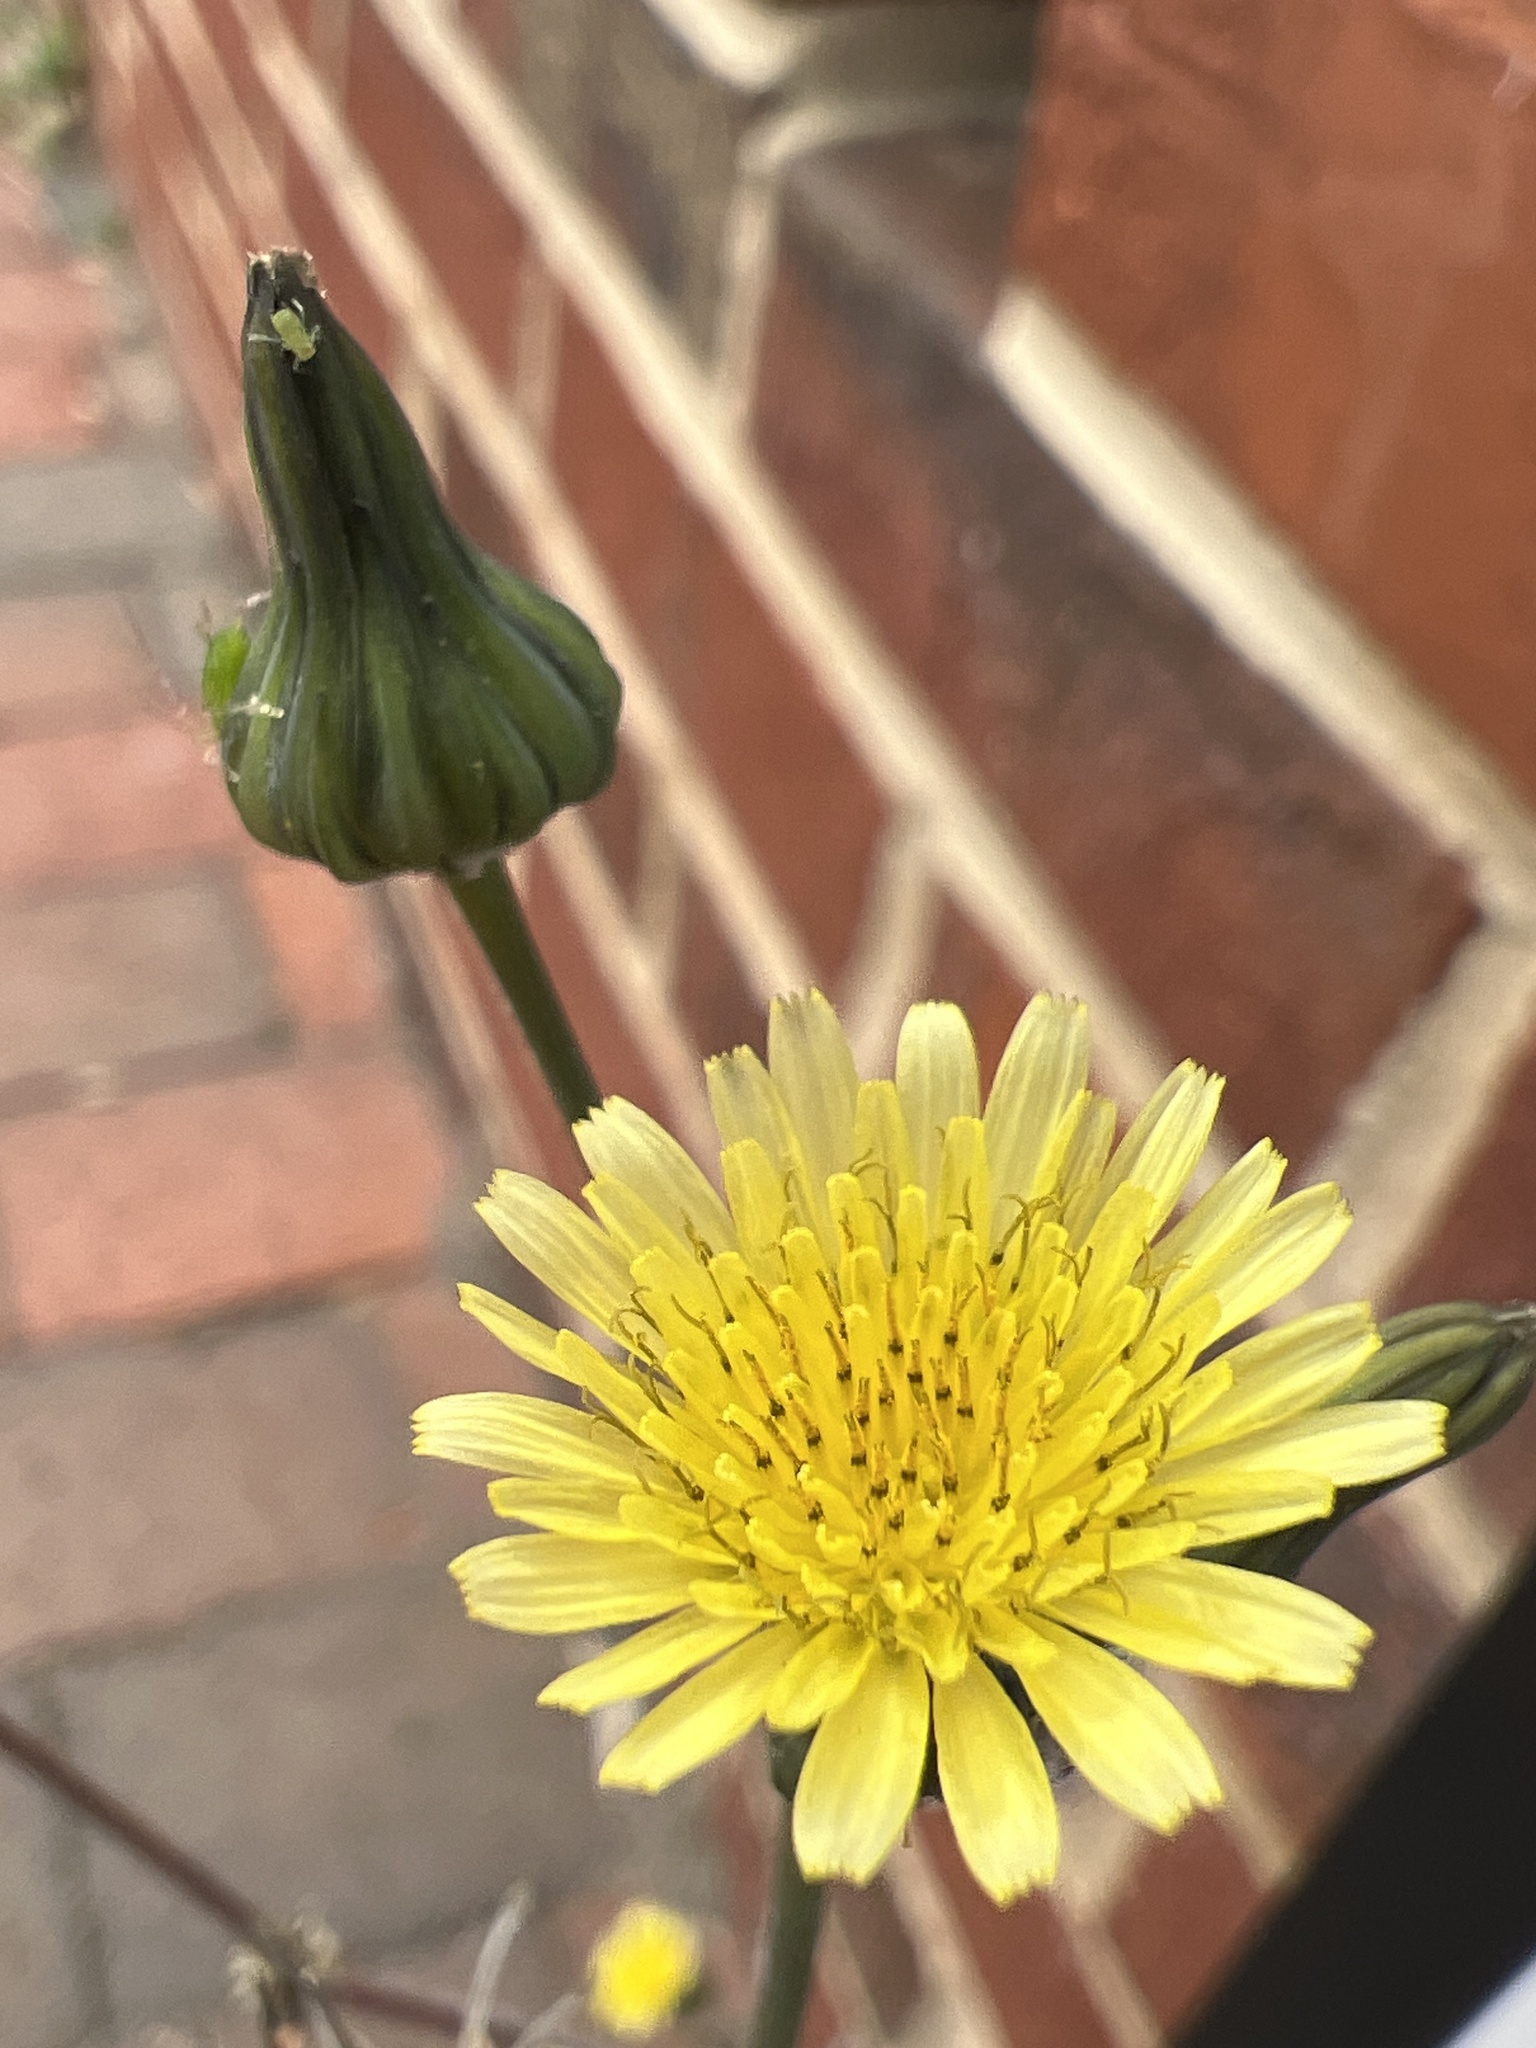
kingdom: Plantae
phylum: Tracheophyta
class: Magnoliopsida
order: Asterales
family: Asteraceae
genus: Sonchus
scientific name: Sonchus oleraceus
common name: Common sowthistle
